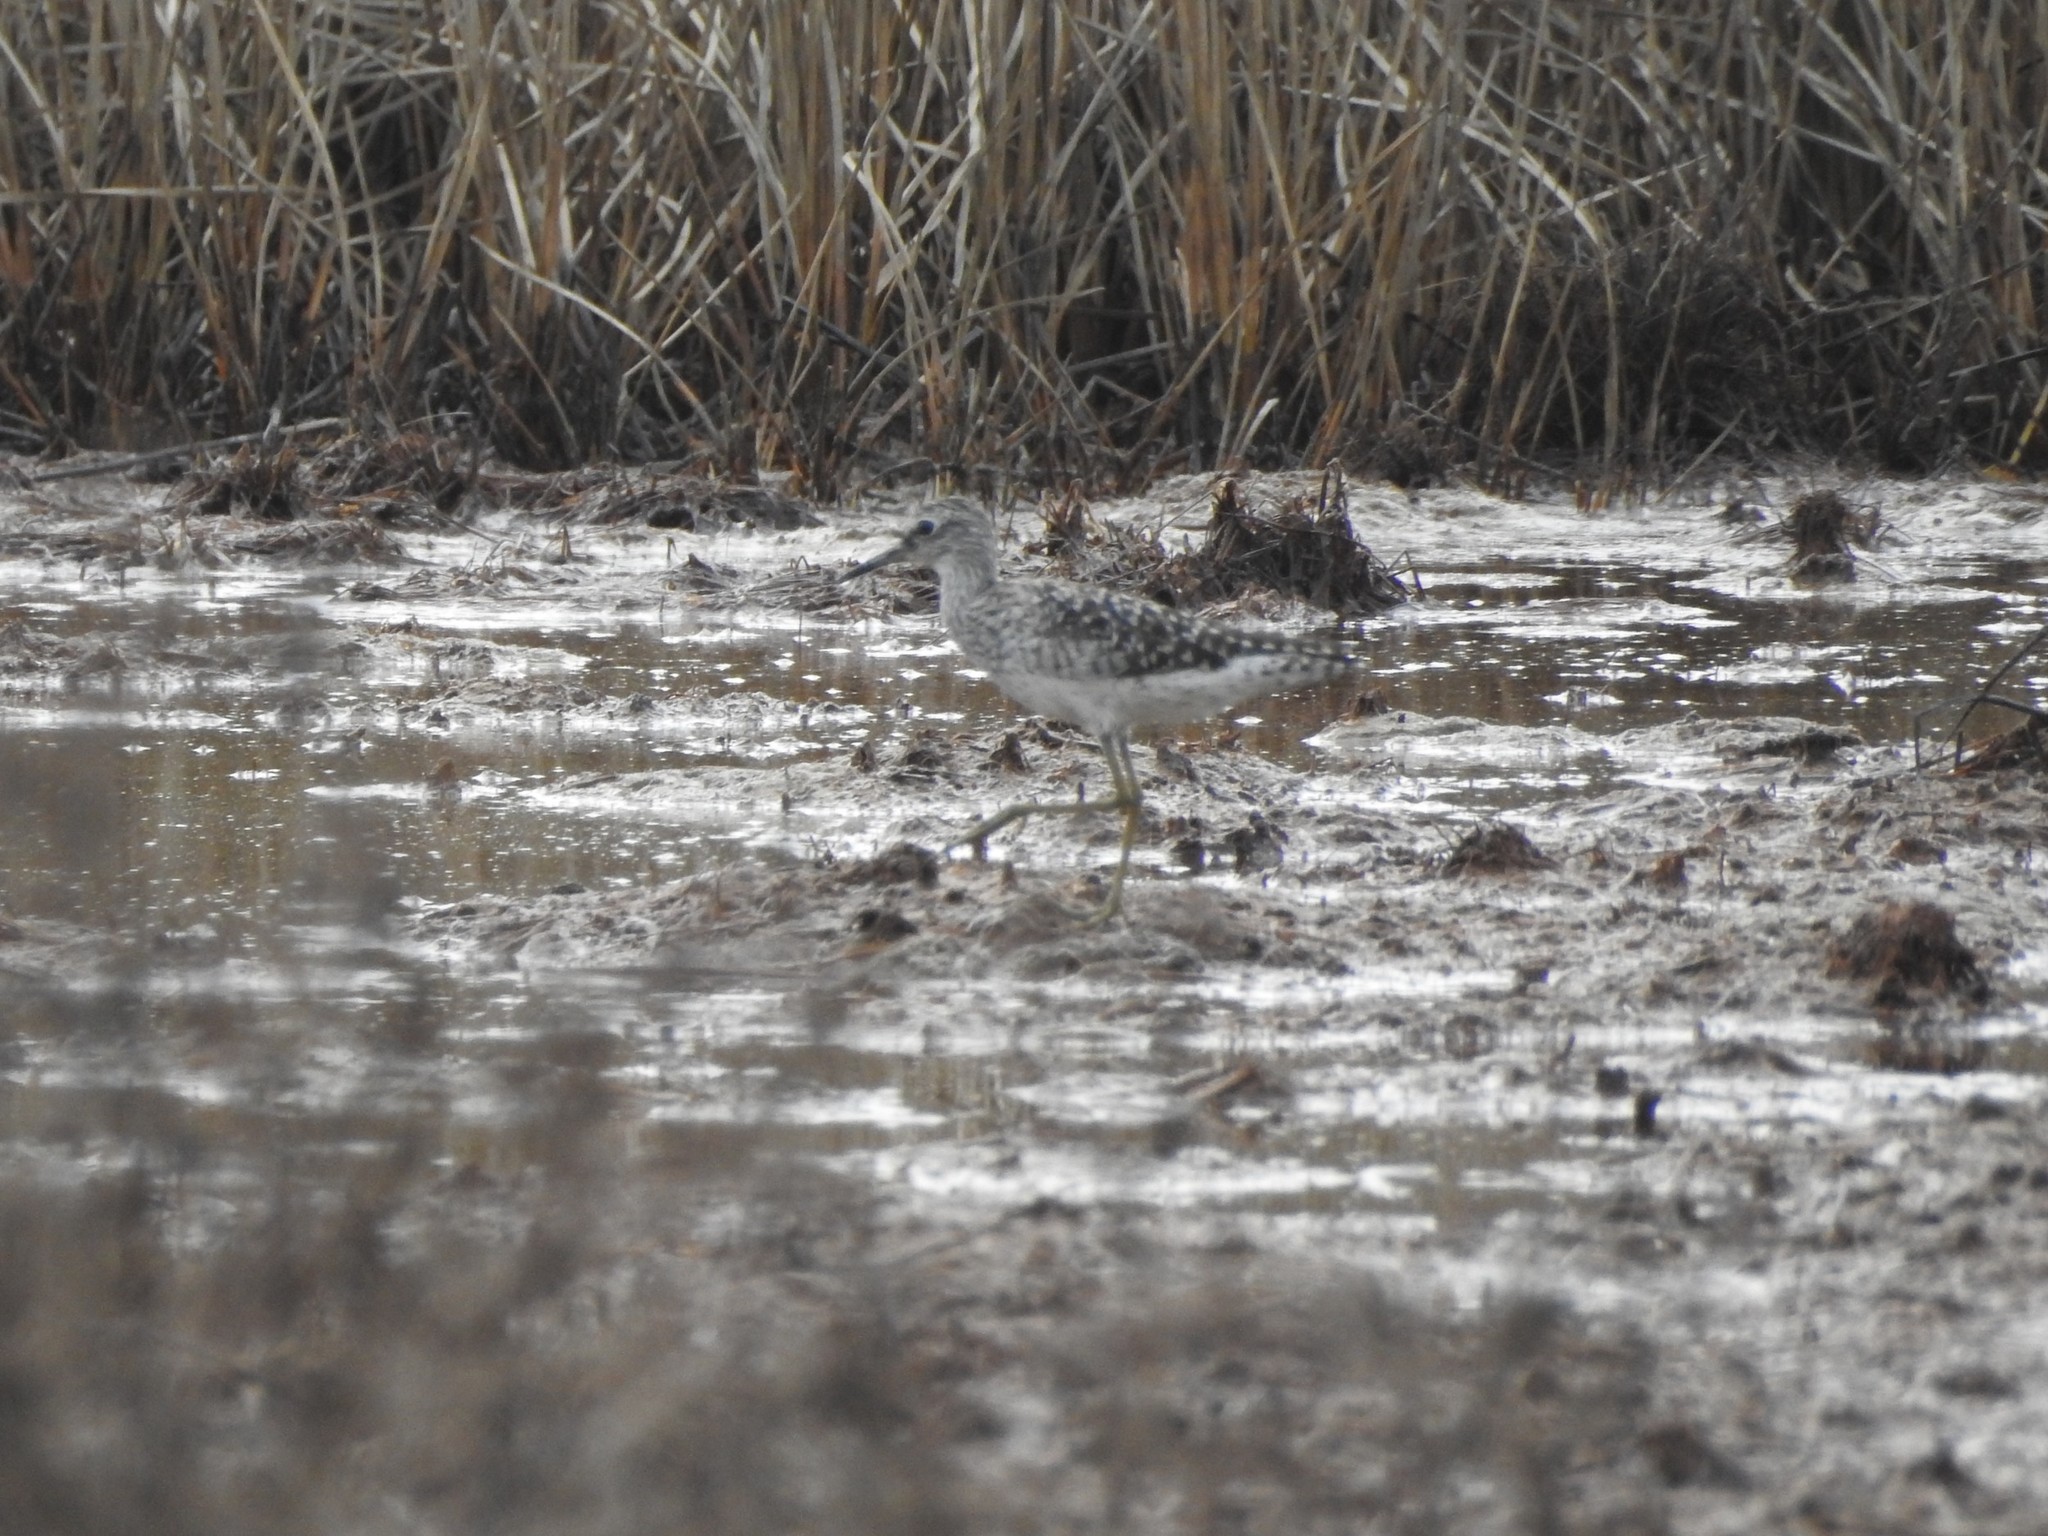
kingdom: Animalia
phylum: Chordata
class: Aves
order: Charadriiformes
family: Scolopacidae
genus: Tringa
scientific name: Tringa glareola
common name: Wood sandpiper
